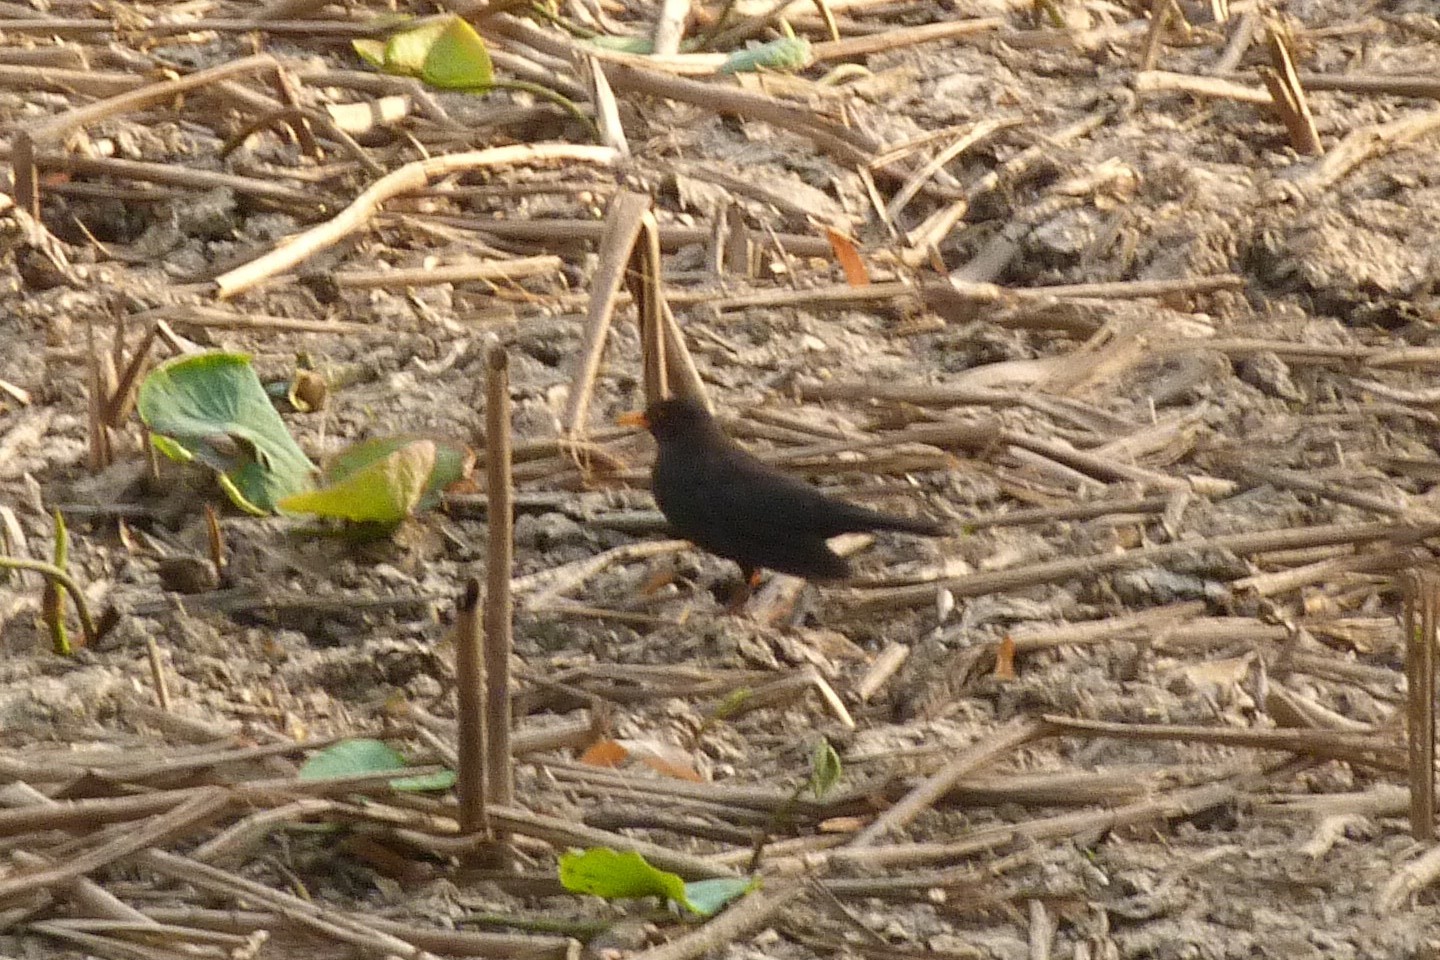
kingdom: Animalia
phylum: Chordata
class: Aves
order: Passeriformes
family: Turdidae
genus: Turdus
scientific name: Turdus mandarinus
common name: Chinese blackbird
